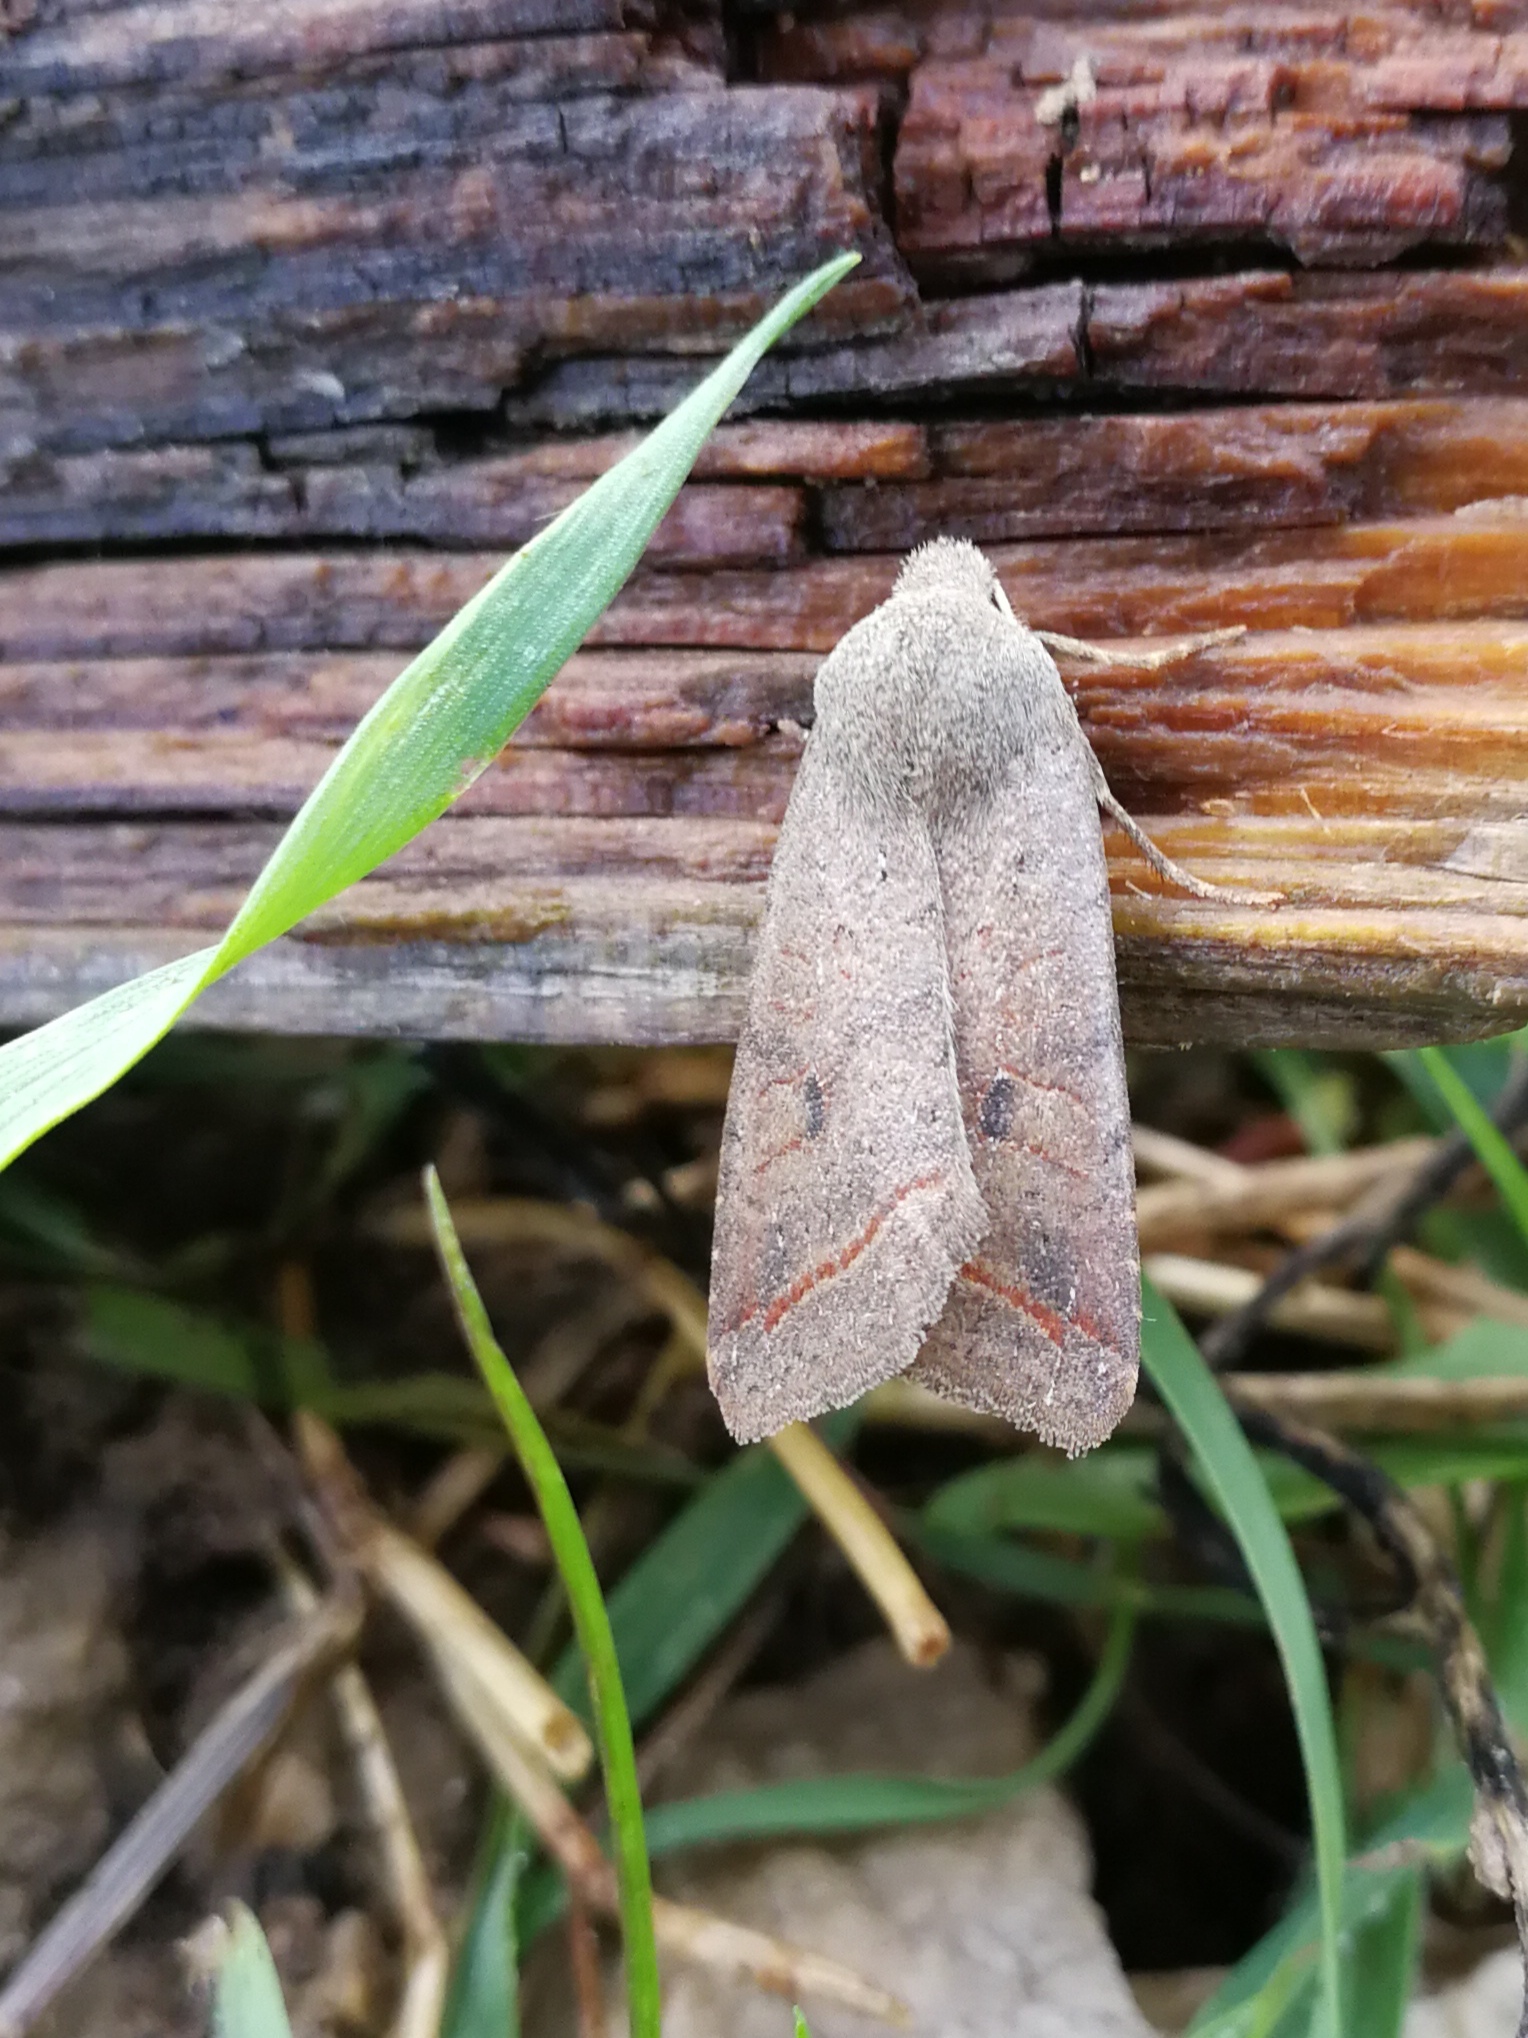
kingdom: Animalia
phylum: Arthropoda
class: Insecta
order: Lepidoptera
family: Noctuidae
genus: Agrochola
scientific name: Agrochola lota
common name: Red-line quaker
